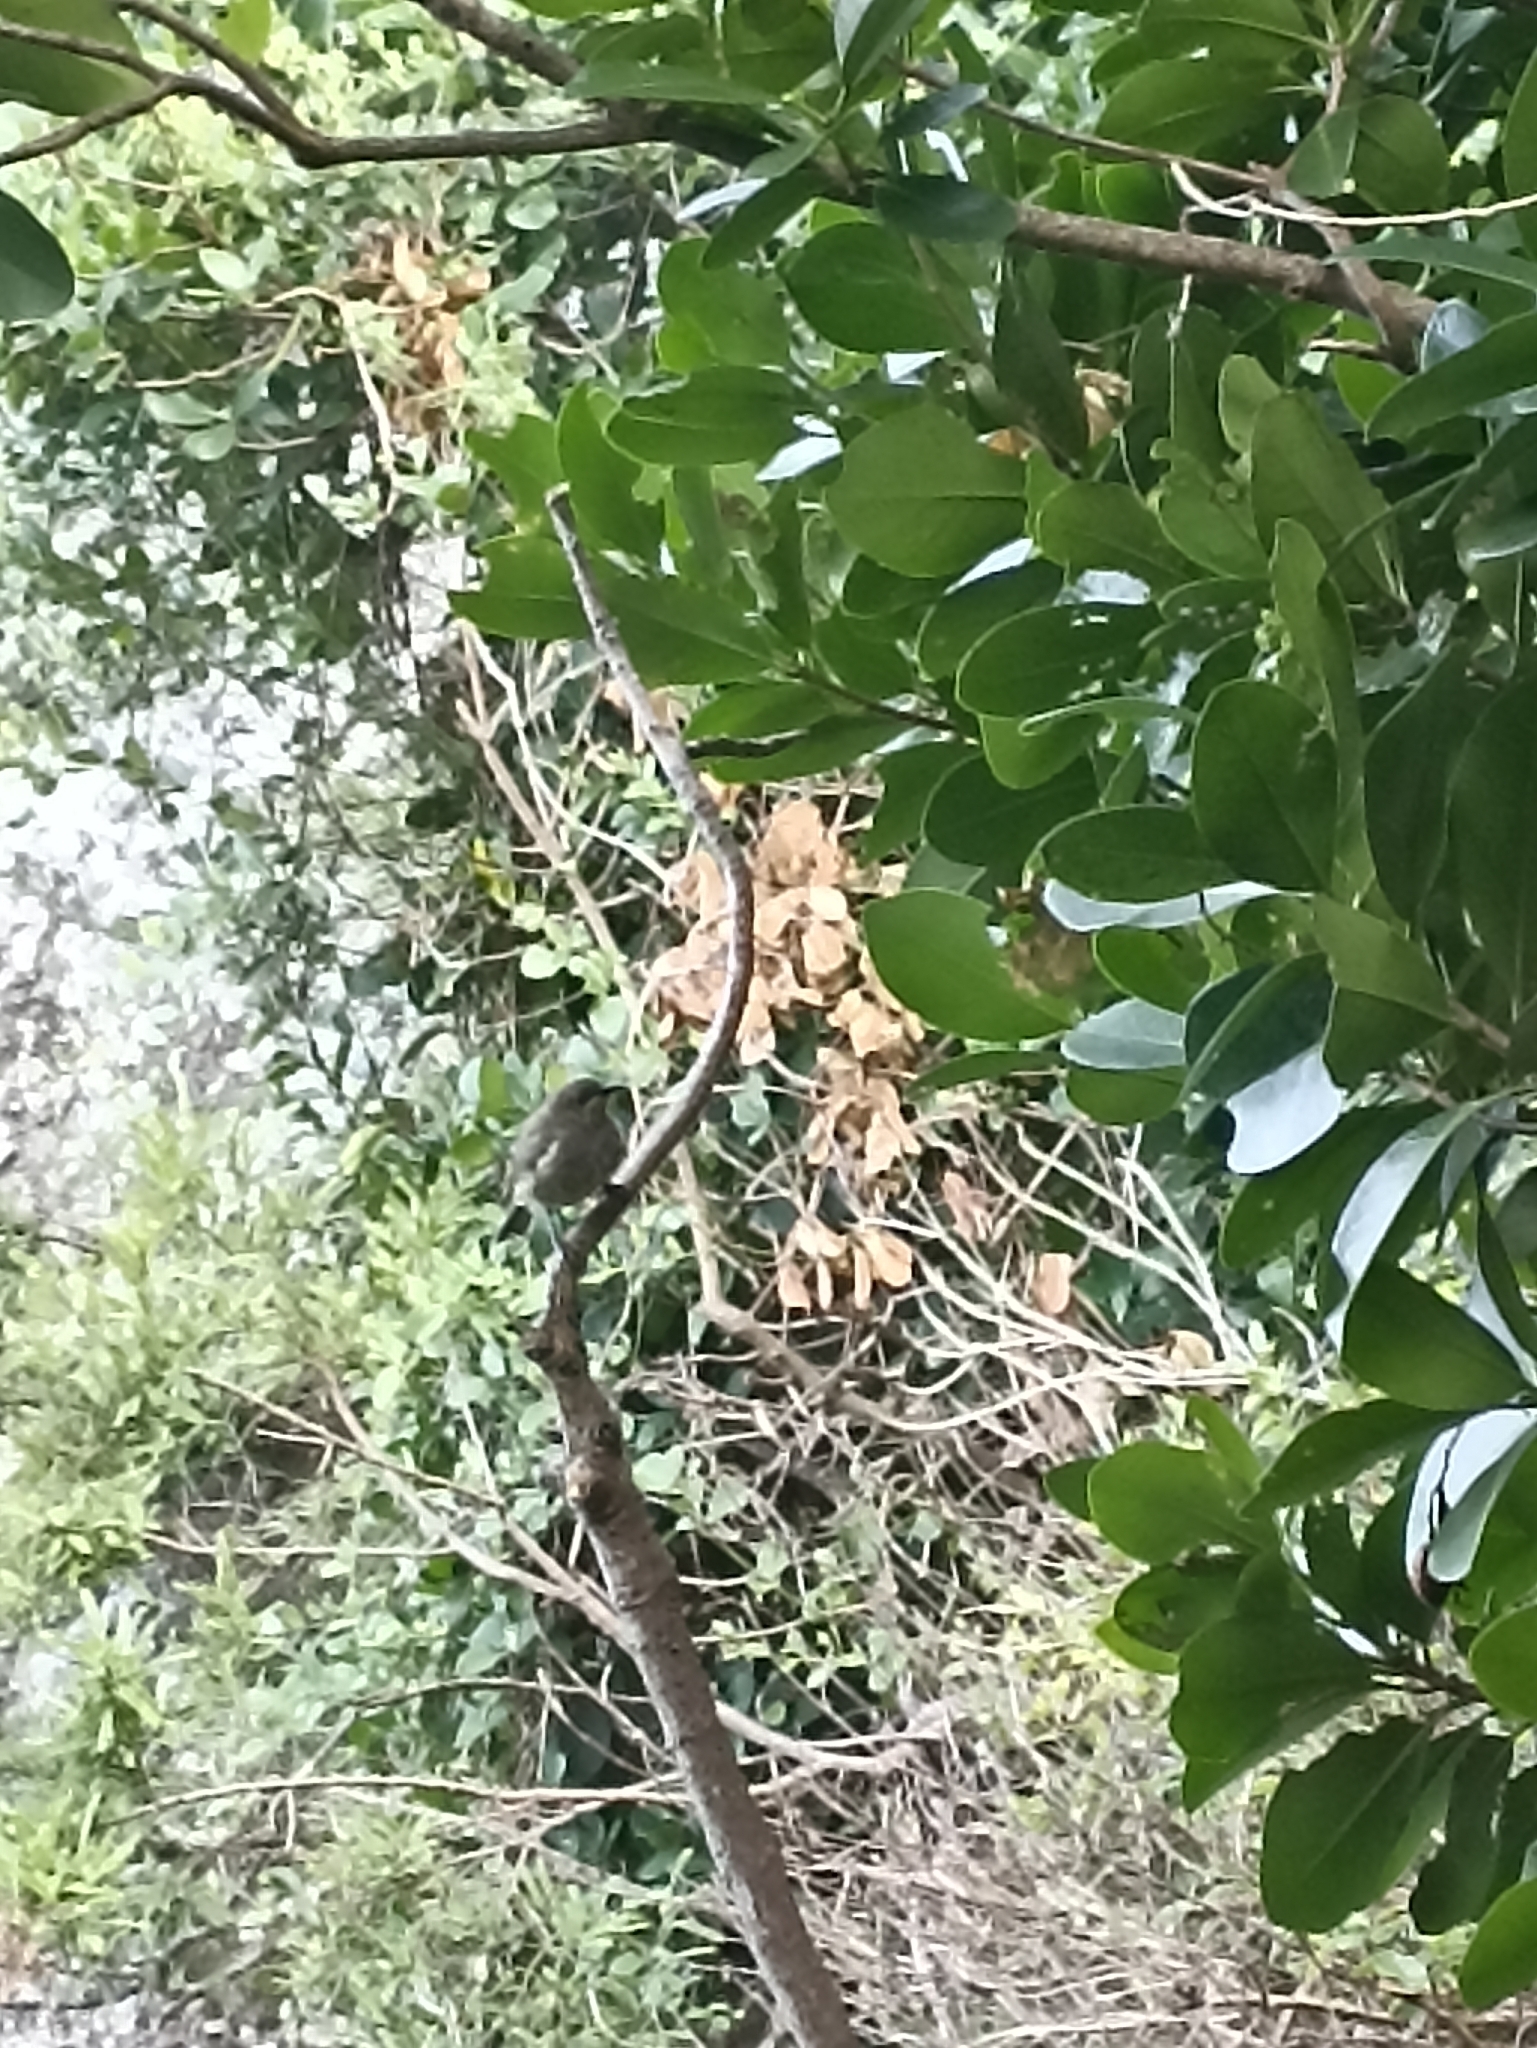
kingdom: Animalia
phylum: Chordata
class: Aves
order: Passeriformes
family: Meliphagidae
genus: Anthornis
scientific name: Anthornis melanura
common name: New zealand bellbird
